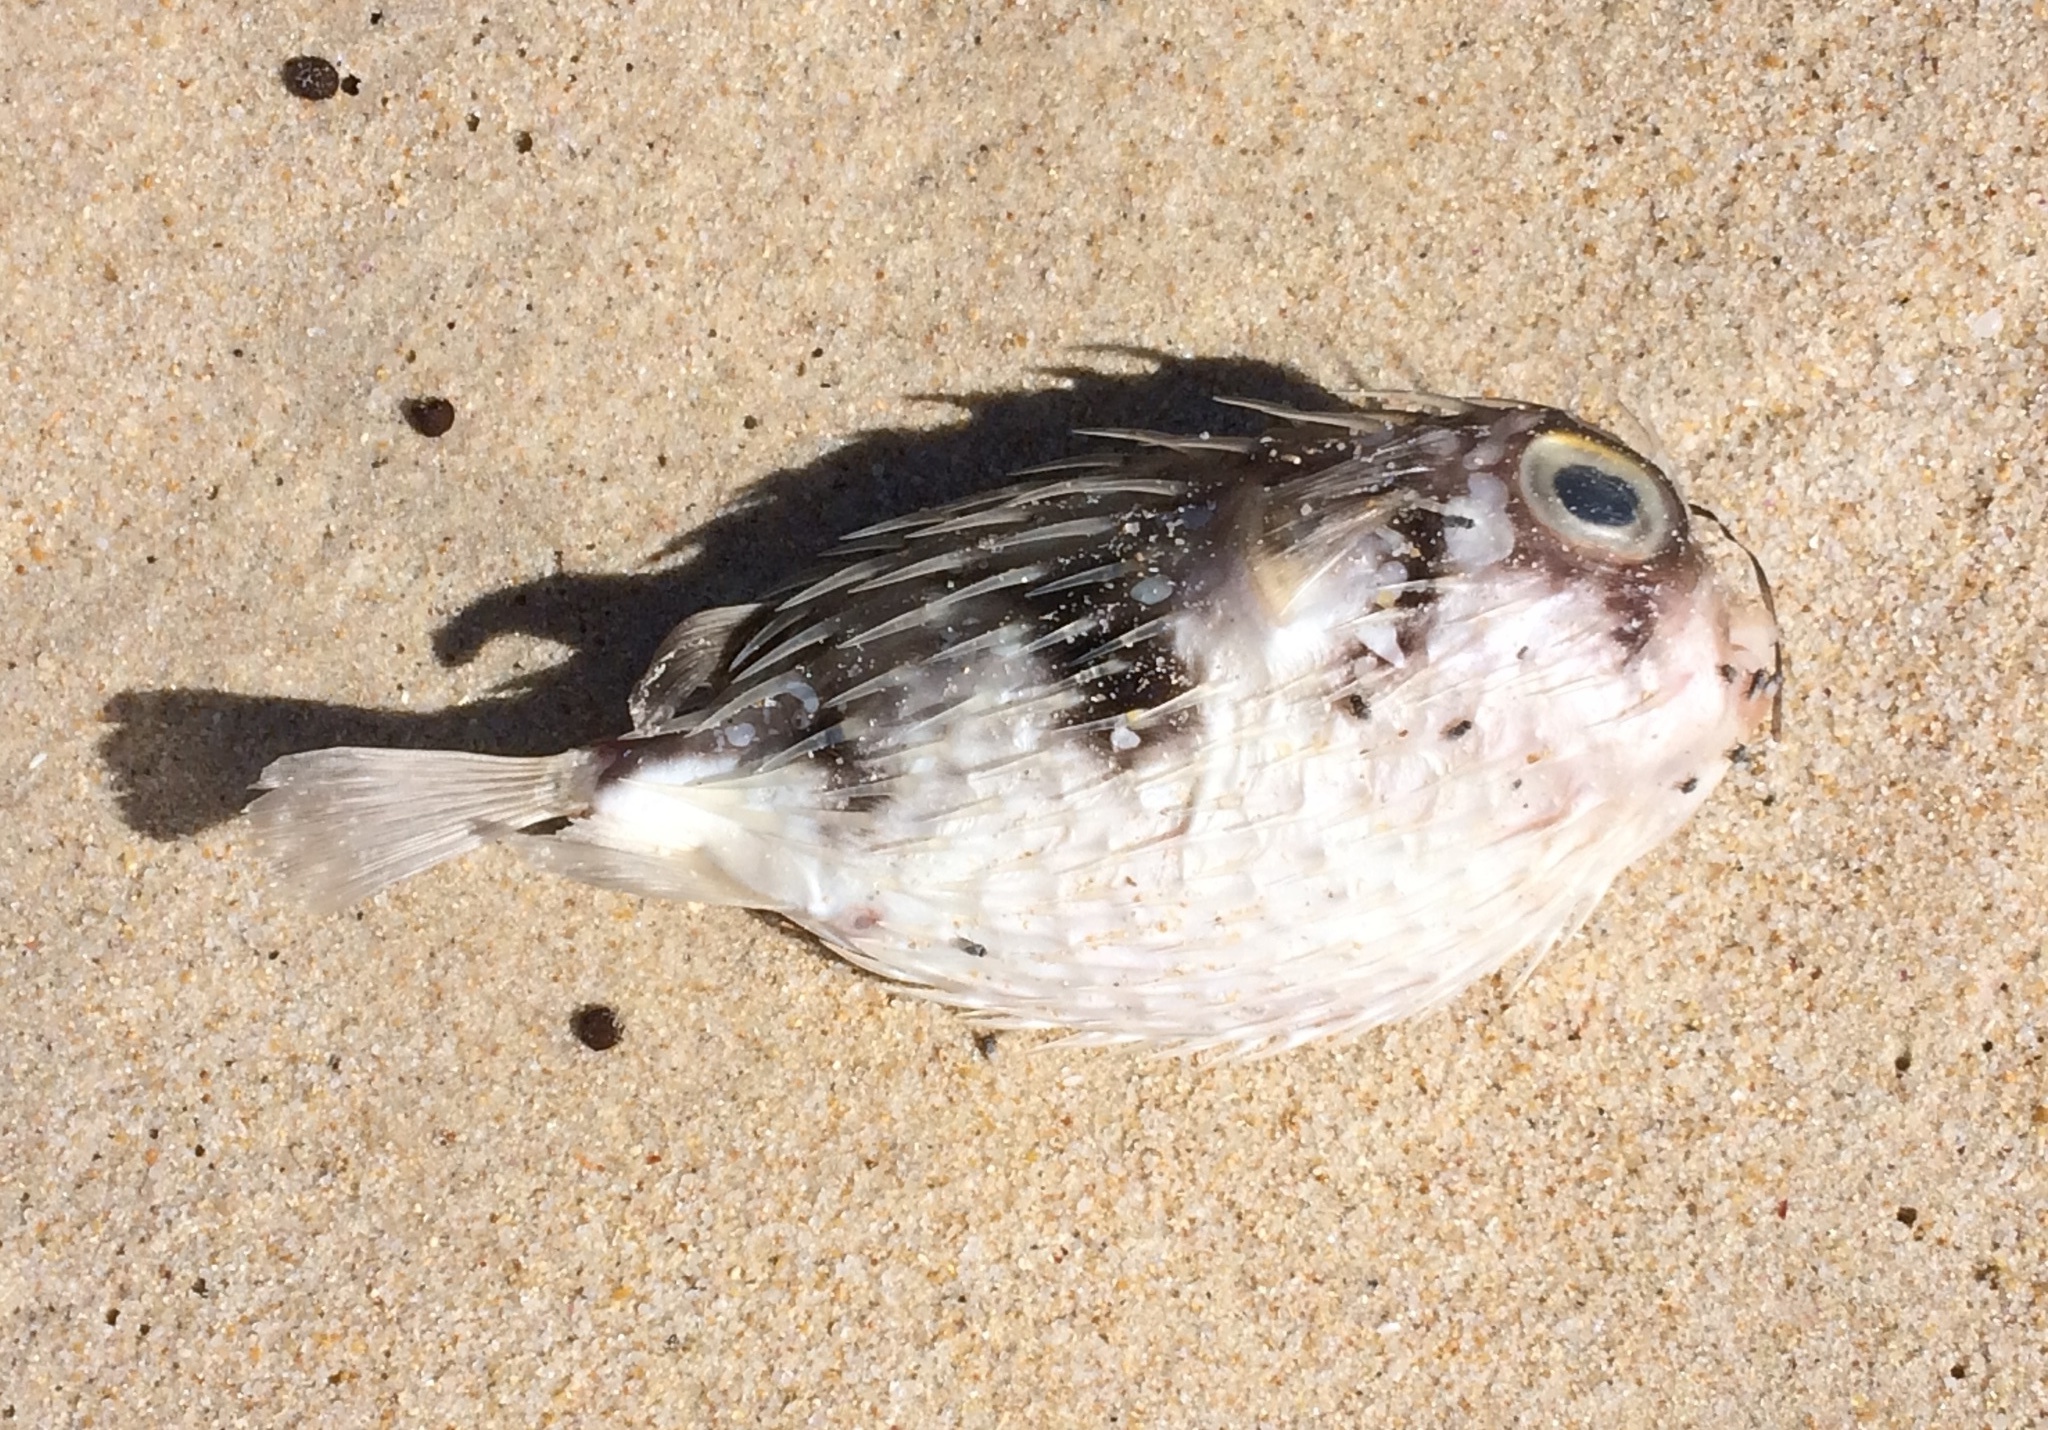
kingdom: Animalia
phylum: Chordata
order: Tetraodontiformes
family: Diodontidae
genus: Diodon
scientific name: Diodon nicthemerus
